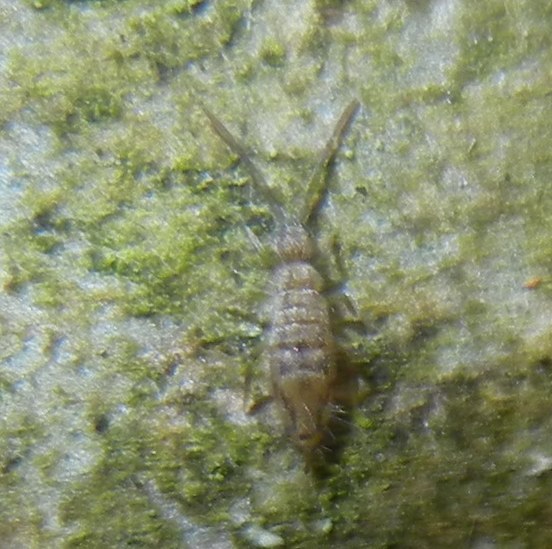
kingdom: Animalia
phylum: Arthropoda
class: Collembola
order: Entomobryomorpha
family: Entomobryidae
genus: Entomobrya
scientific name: Entomobrya intermedia
